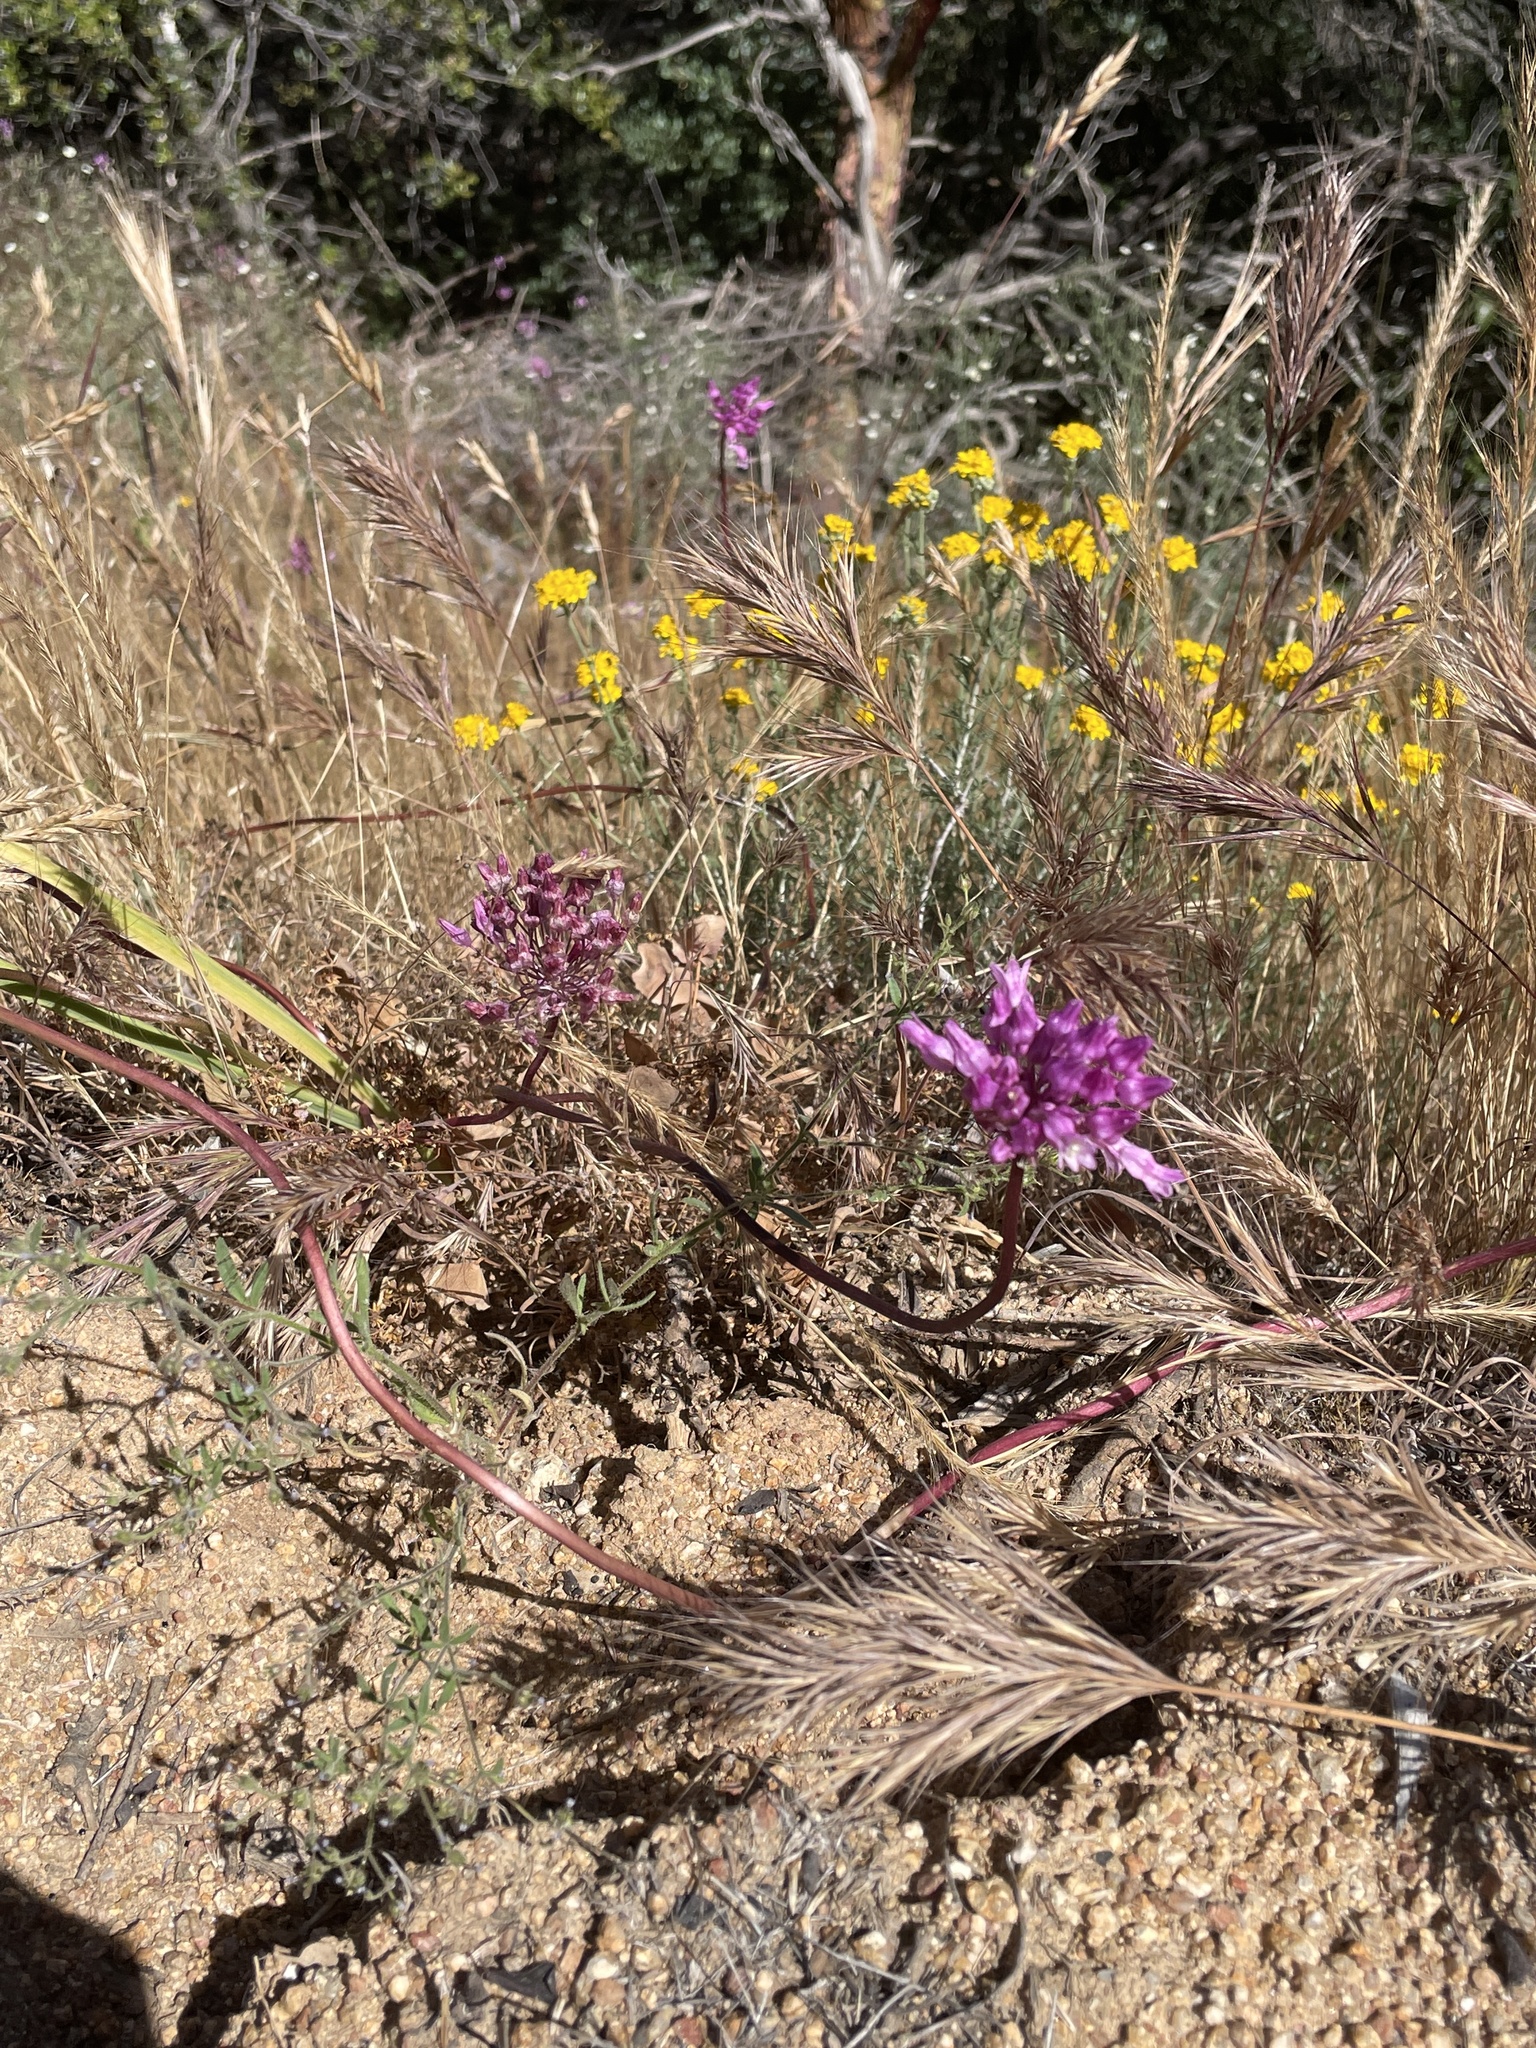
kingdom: Plantae
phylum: Tracheophyta
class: Liliopsida
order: Asparagales
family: Asparagaceae
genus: Dichelostemma
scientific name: Dichelostemma volubile
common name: Trining brodiaea
